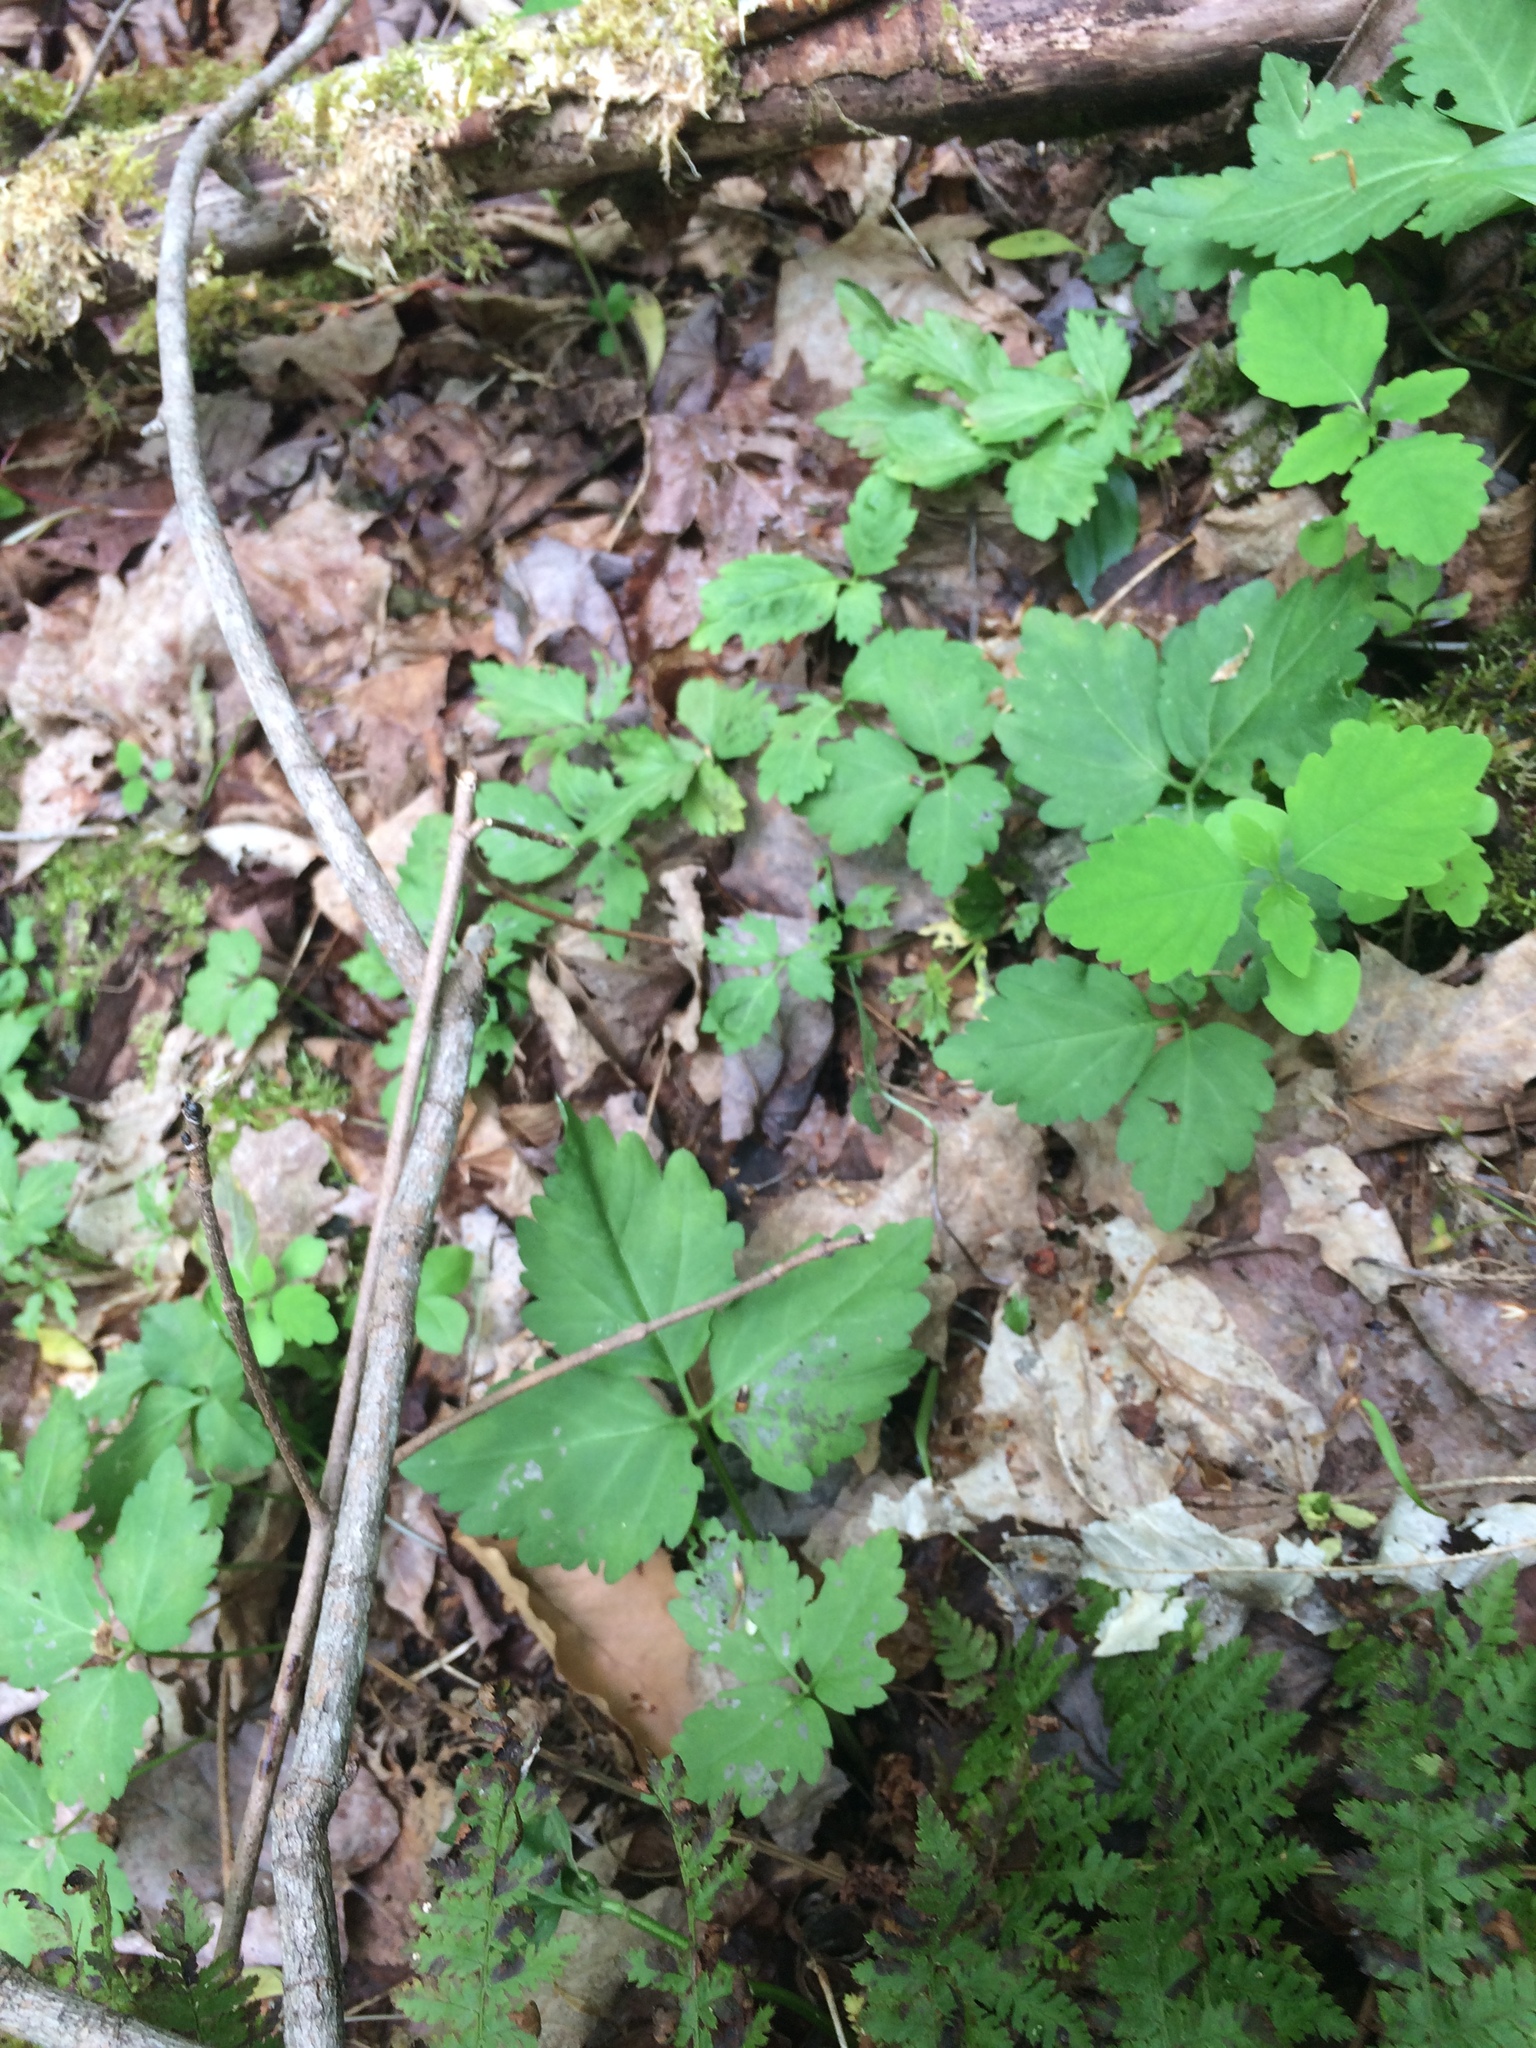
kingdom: Plantae
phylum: Tracheophyta
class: Magnoliopsida
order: Brassicales
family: Brassicaceae
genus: Cardamine
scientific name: Cardamine diphylla
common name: Broad-leaved toothwort
